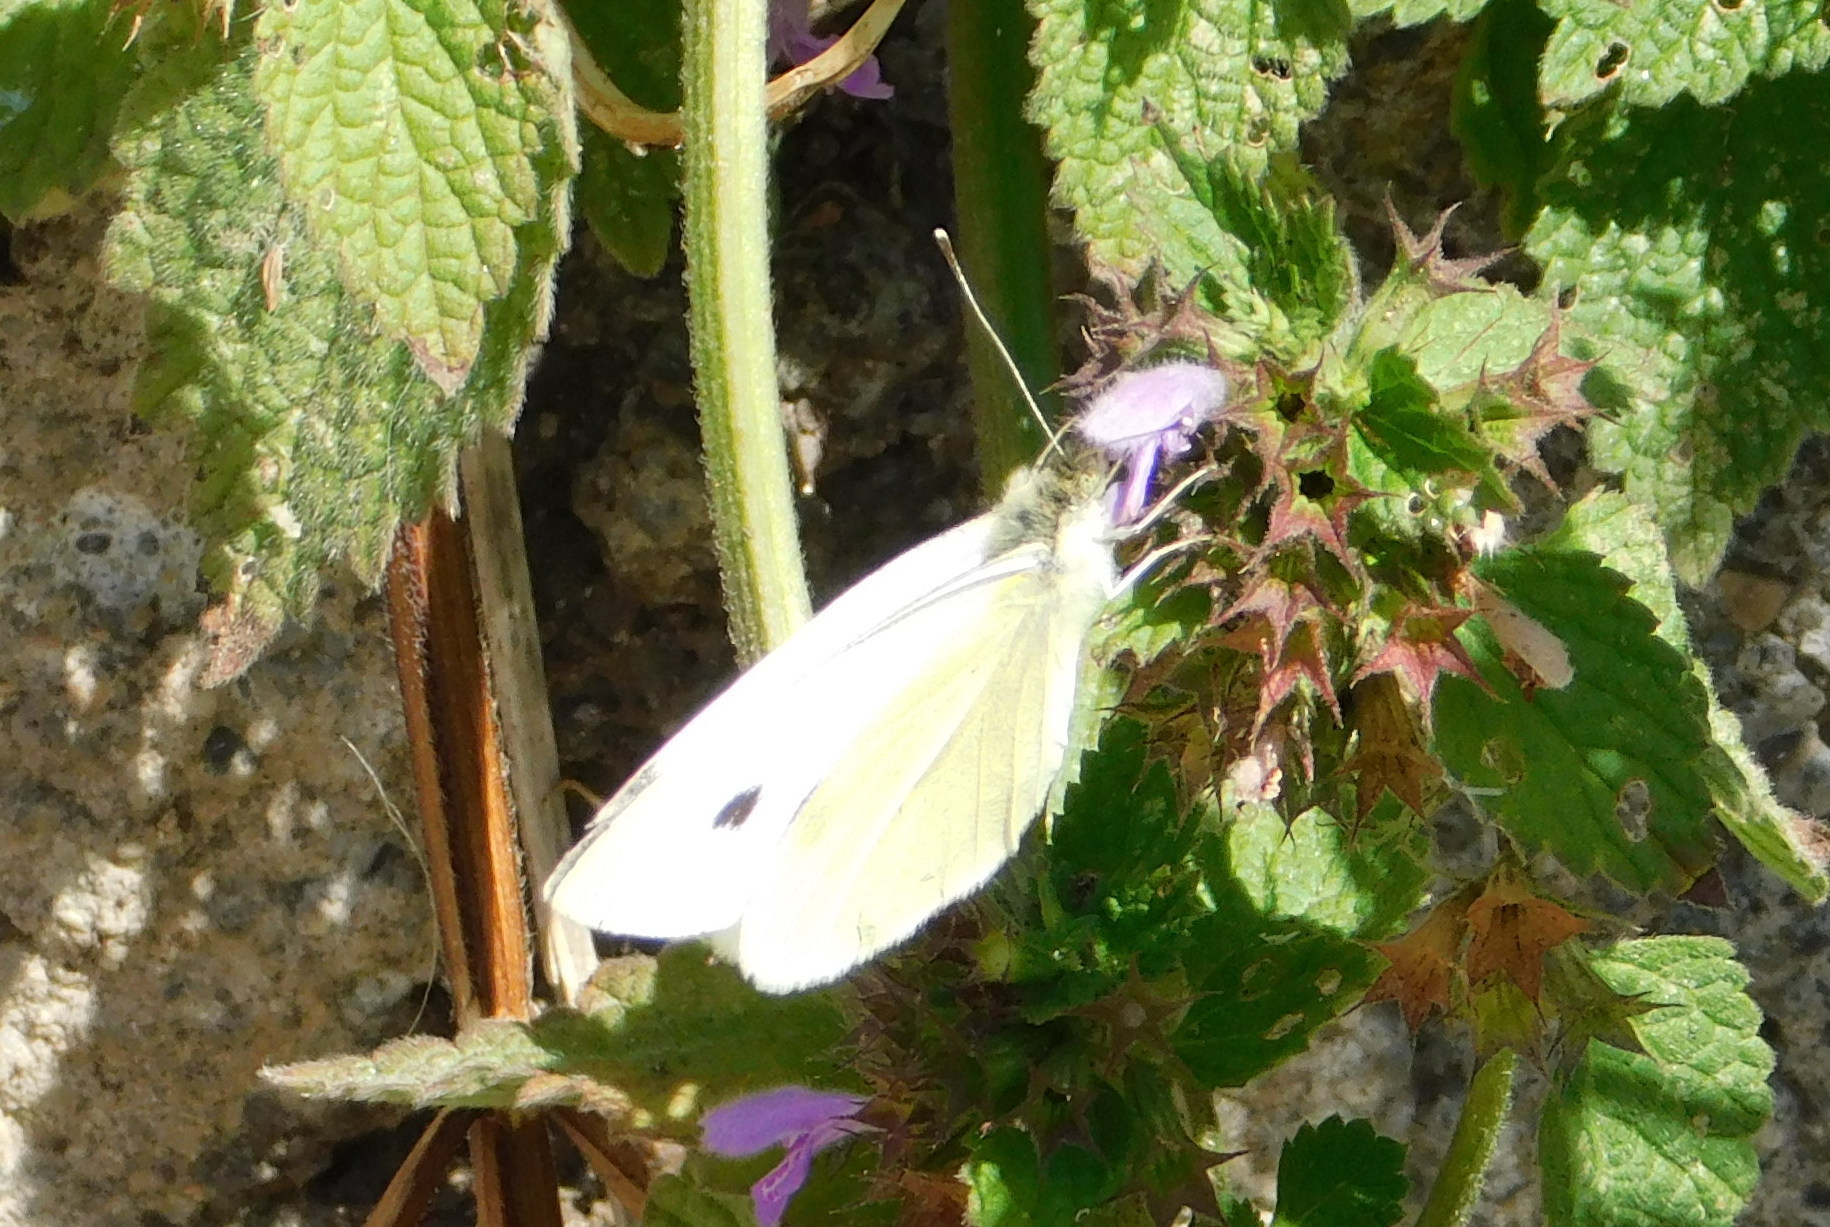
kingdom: Animalia
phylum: Arthropoda
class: Insecta
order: Lepidoptera
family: Pieridae
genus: Pieris
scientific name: Pieris rapae
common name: Small white
